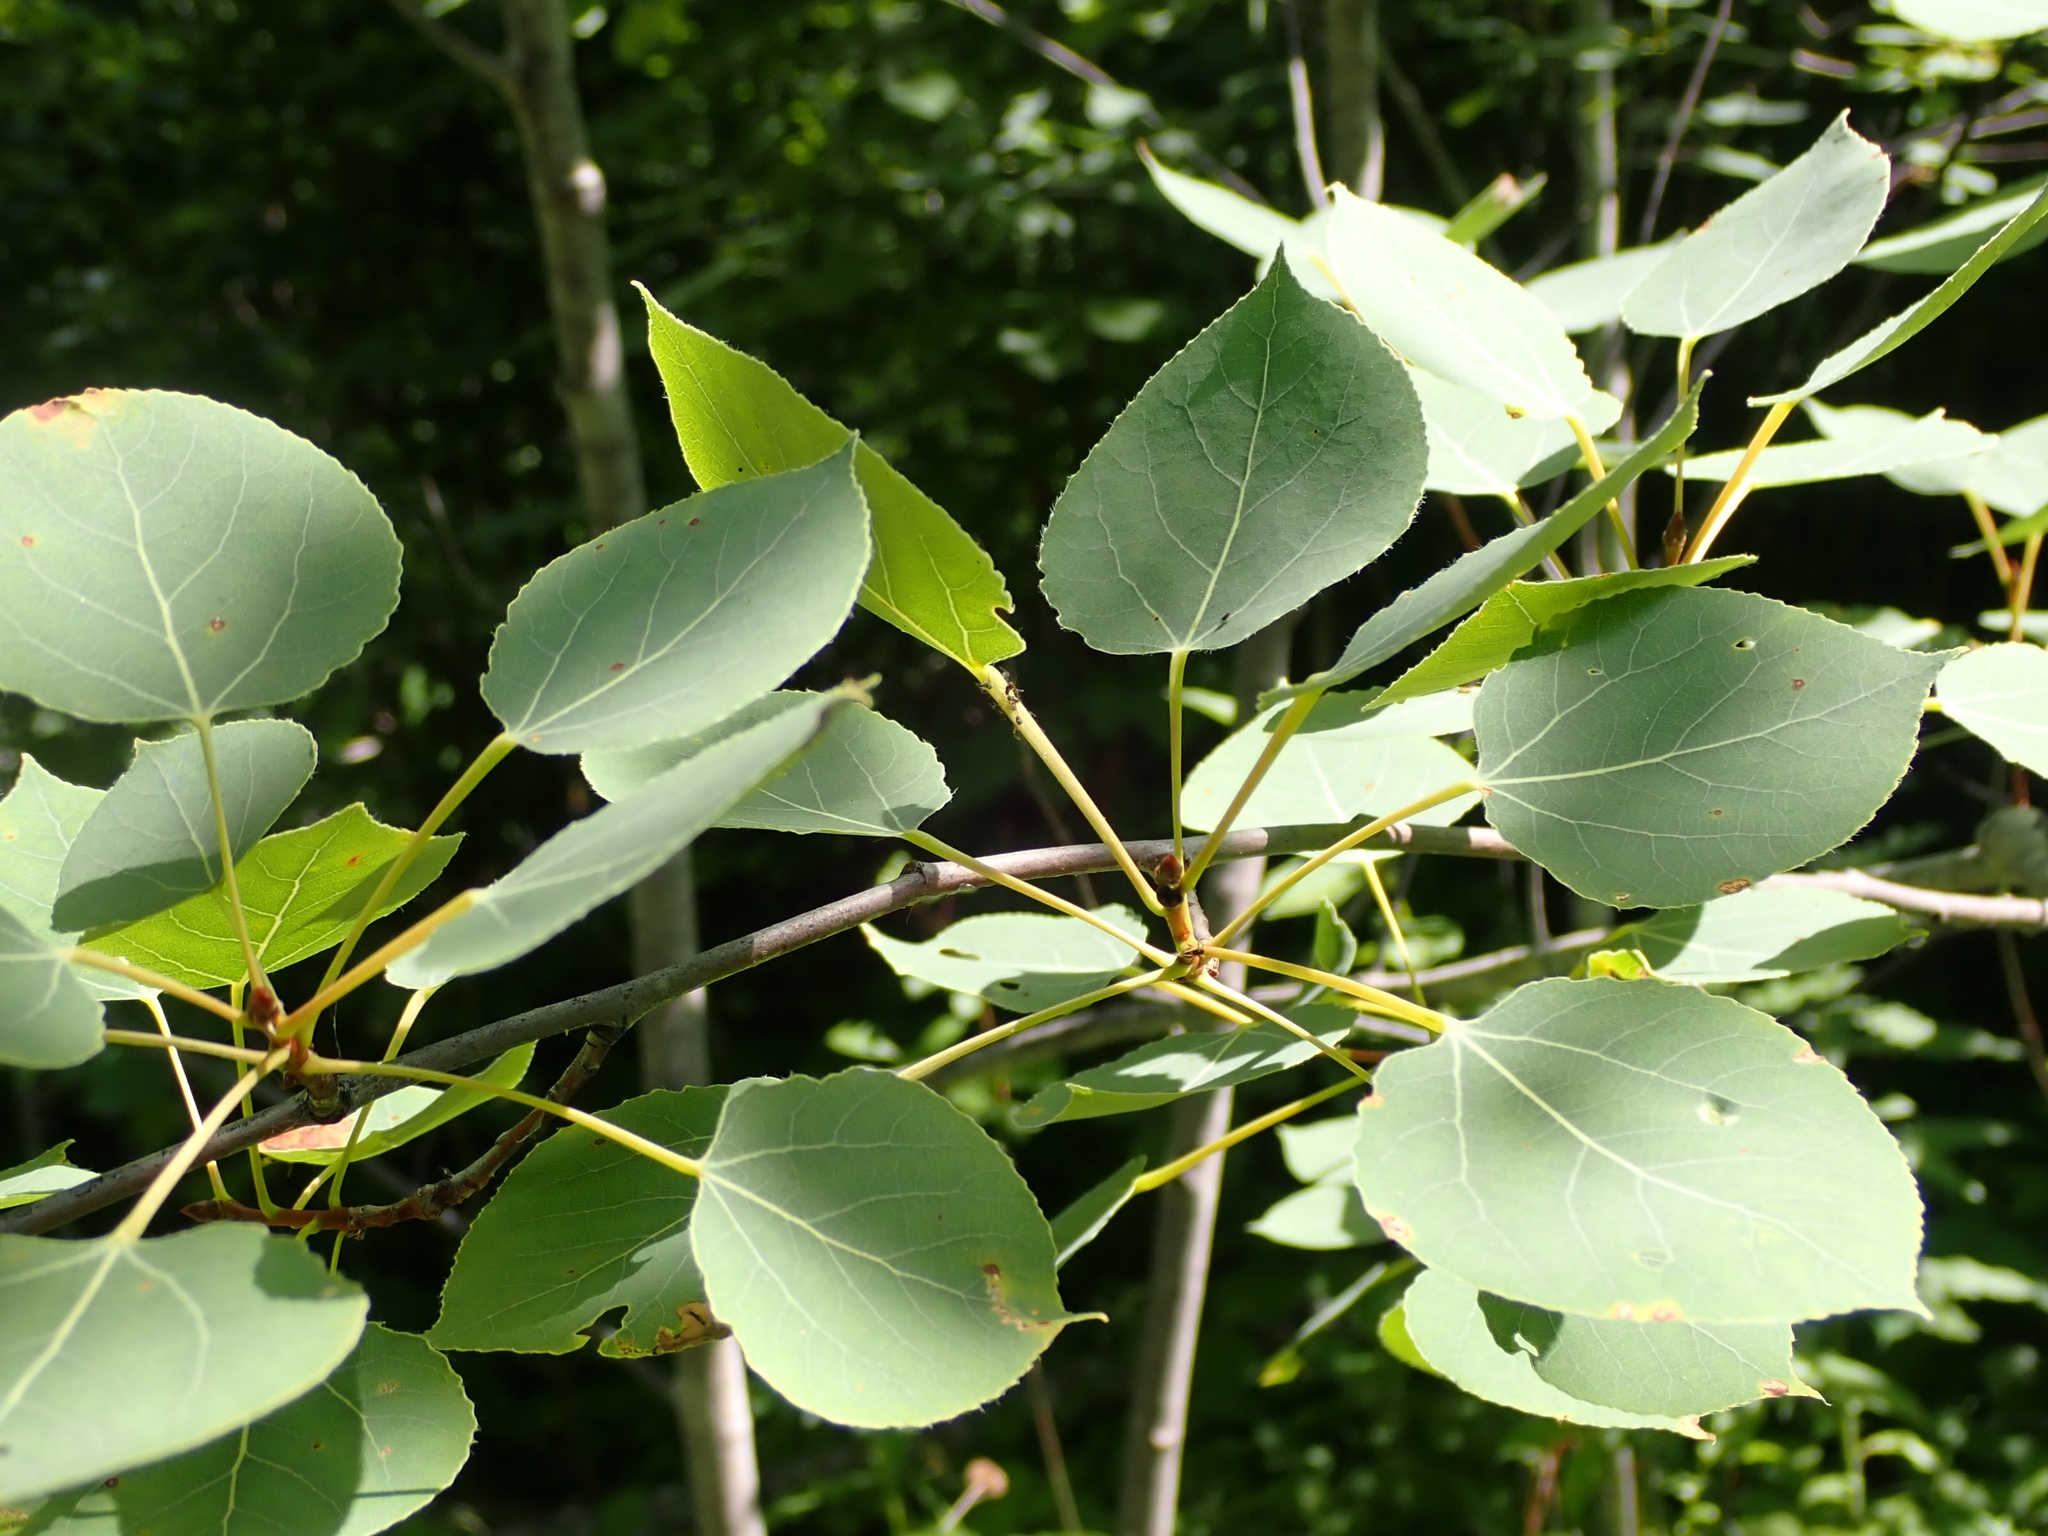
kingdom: Plantae
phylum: Tracheophyta
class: Magnoliopsida
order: Malpighiales
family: Salicaceae
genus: Populus
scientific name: Populus tremuloides
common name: Quaking aspen
